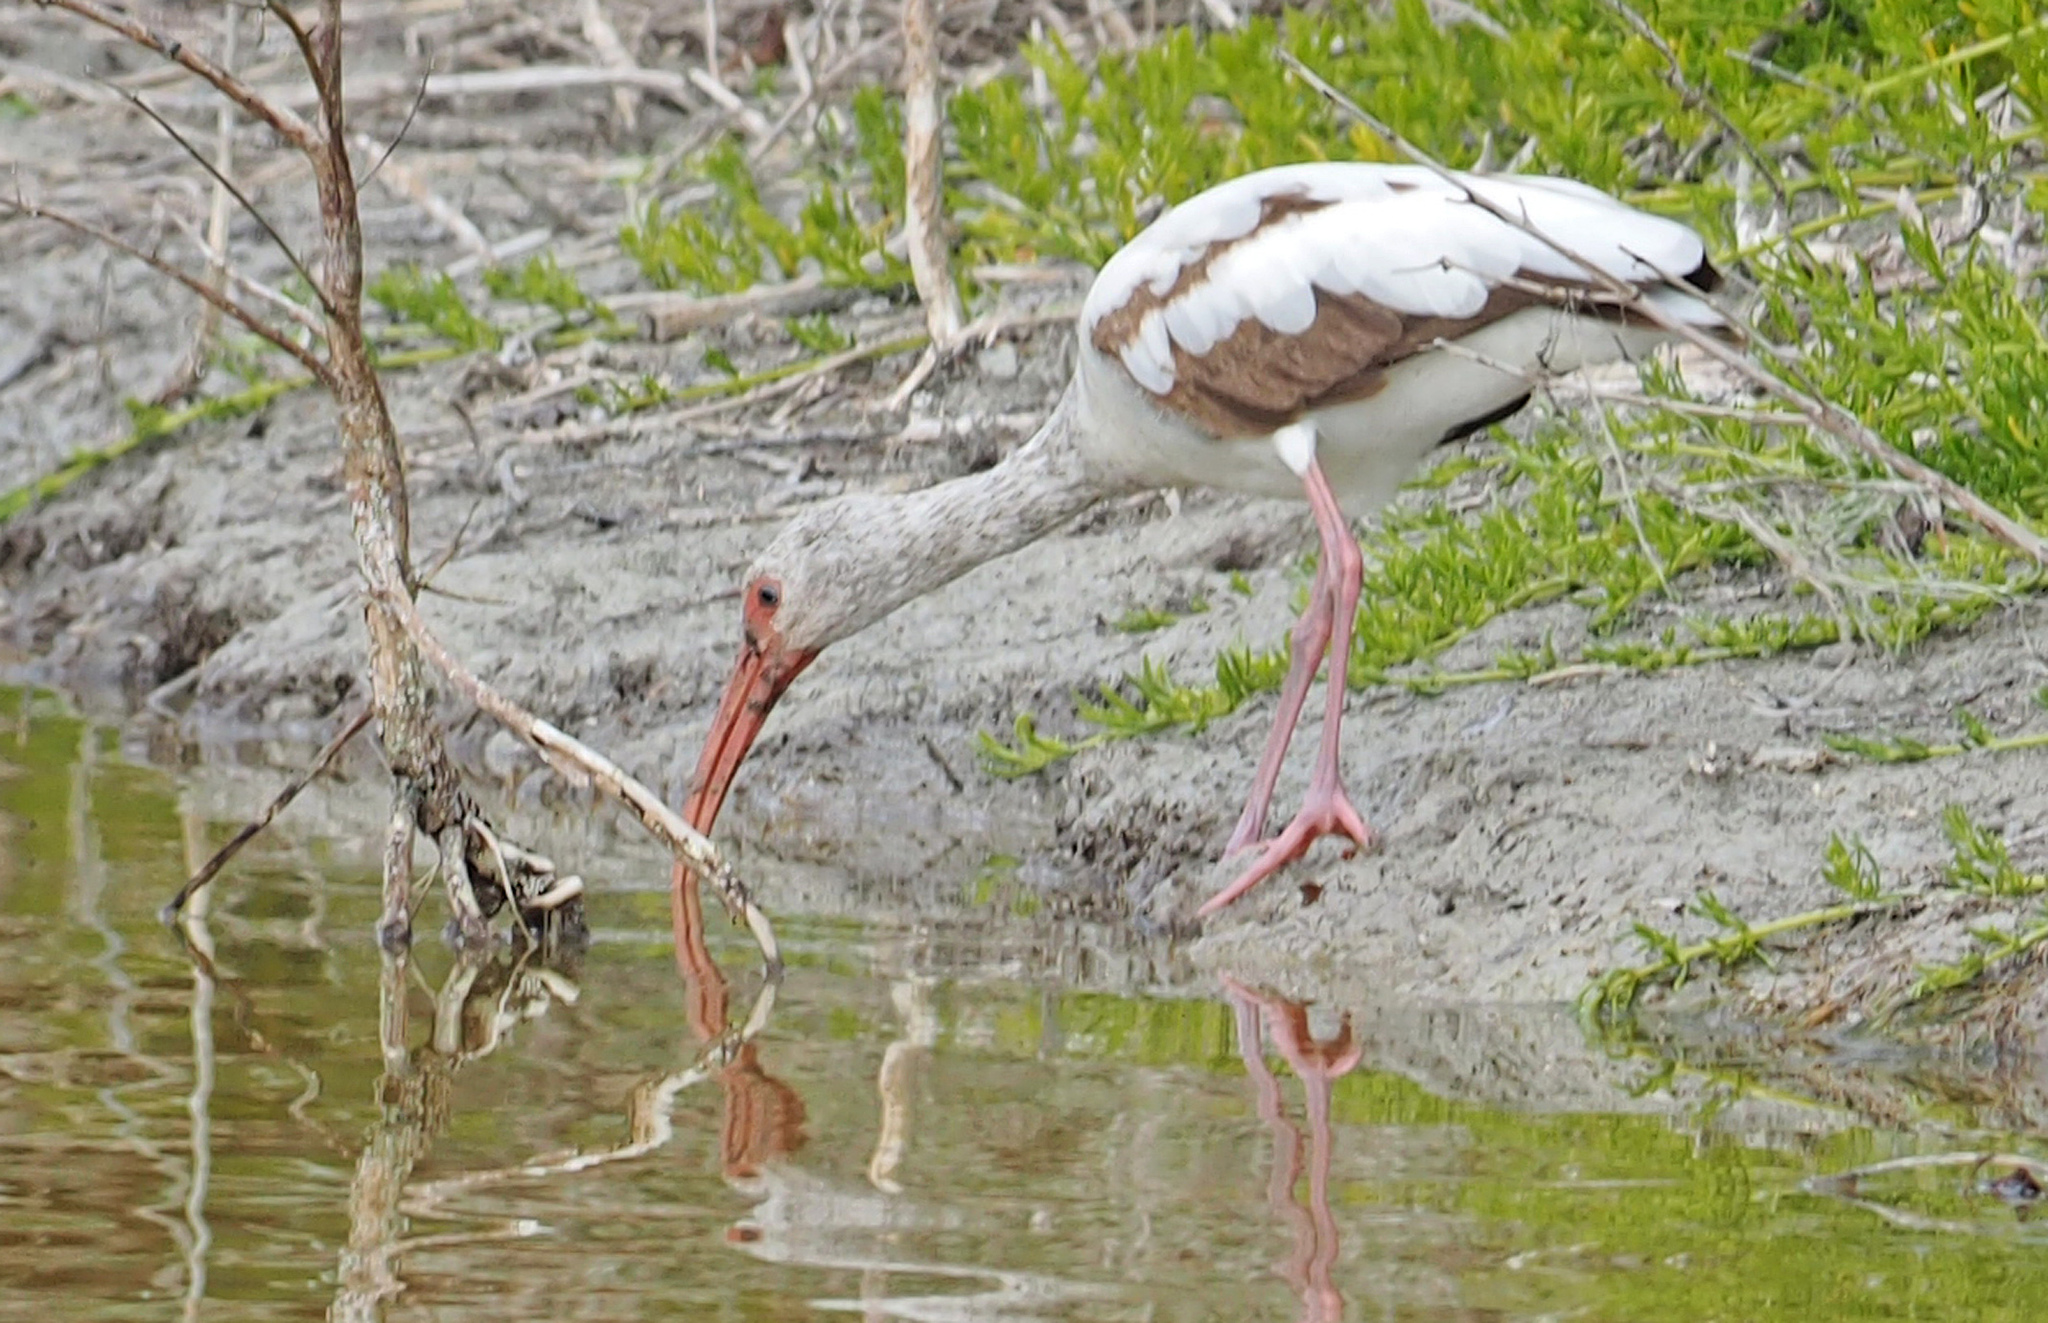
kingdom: Animalia
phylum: Chordata
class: Aves
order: Pelecaniformes
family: Threskiornithidae
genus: Eudocimus
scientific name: Eudocimus albus
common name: White ibis
